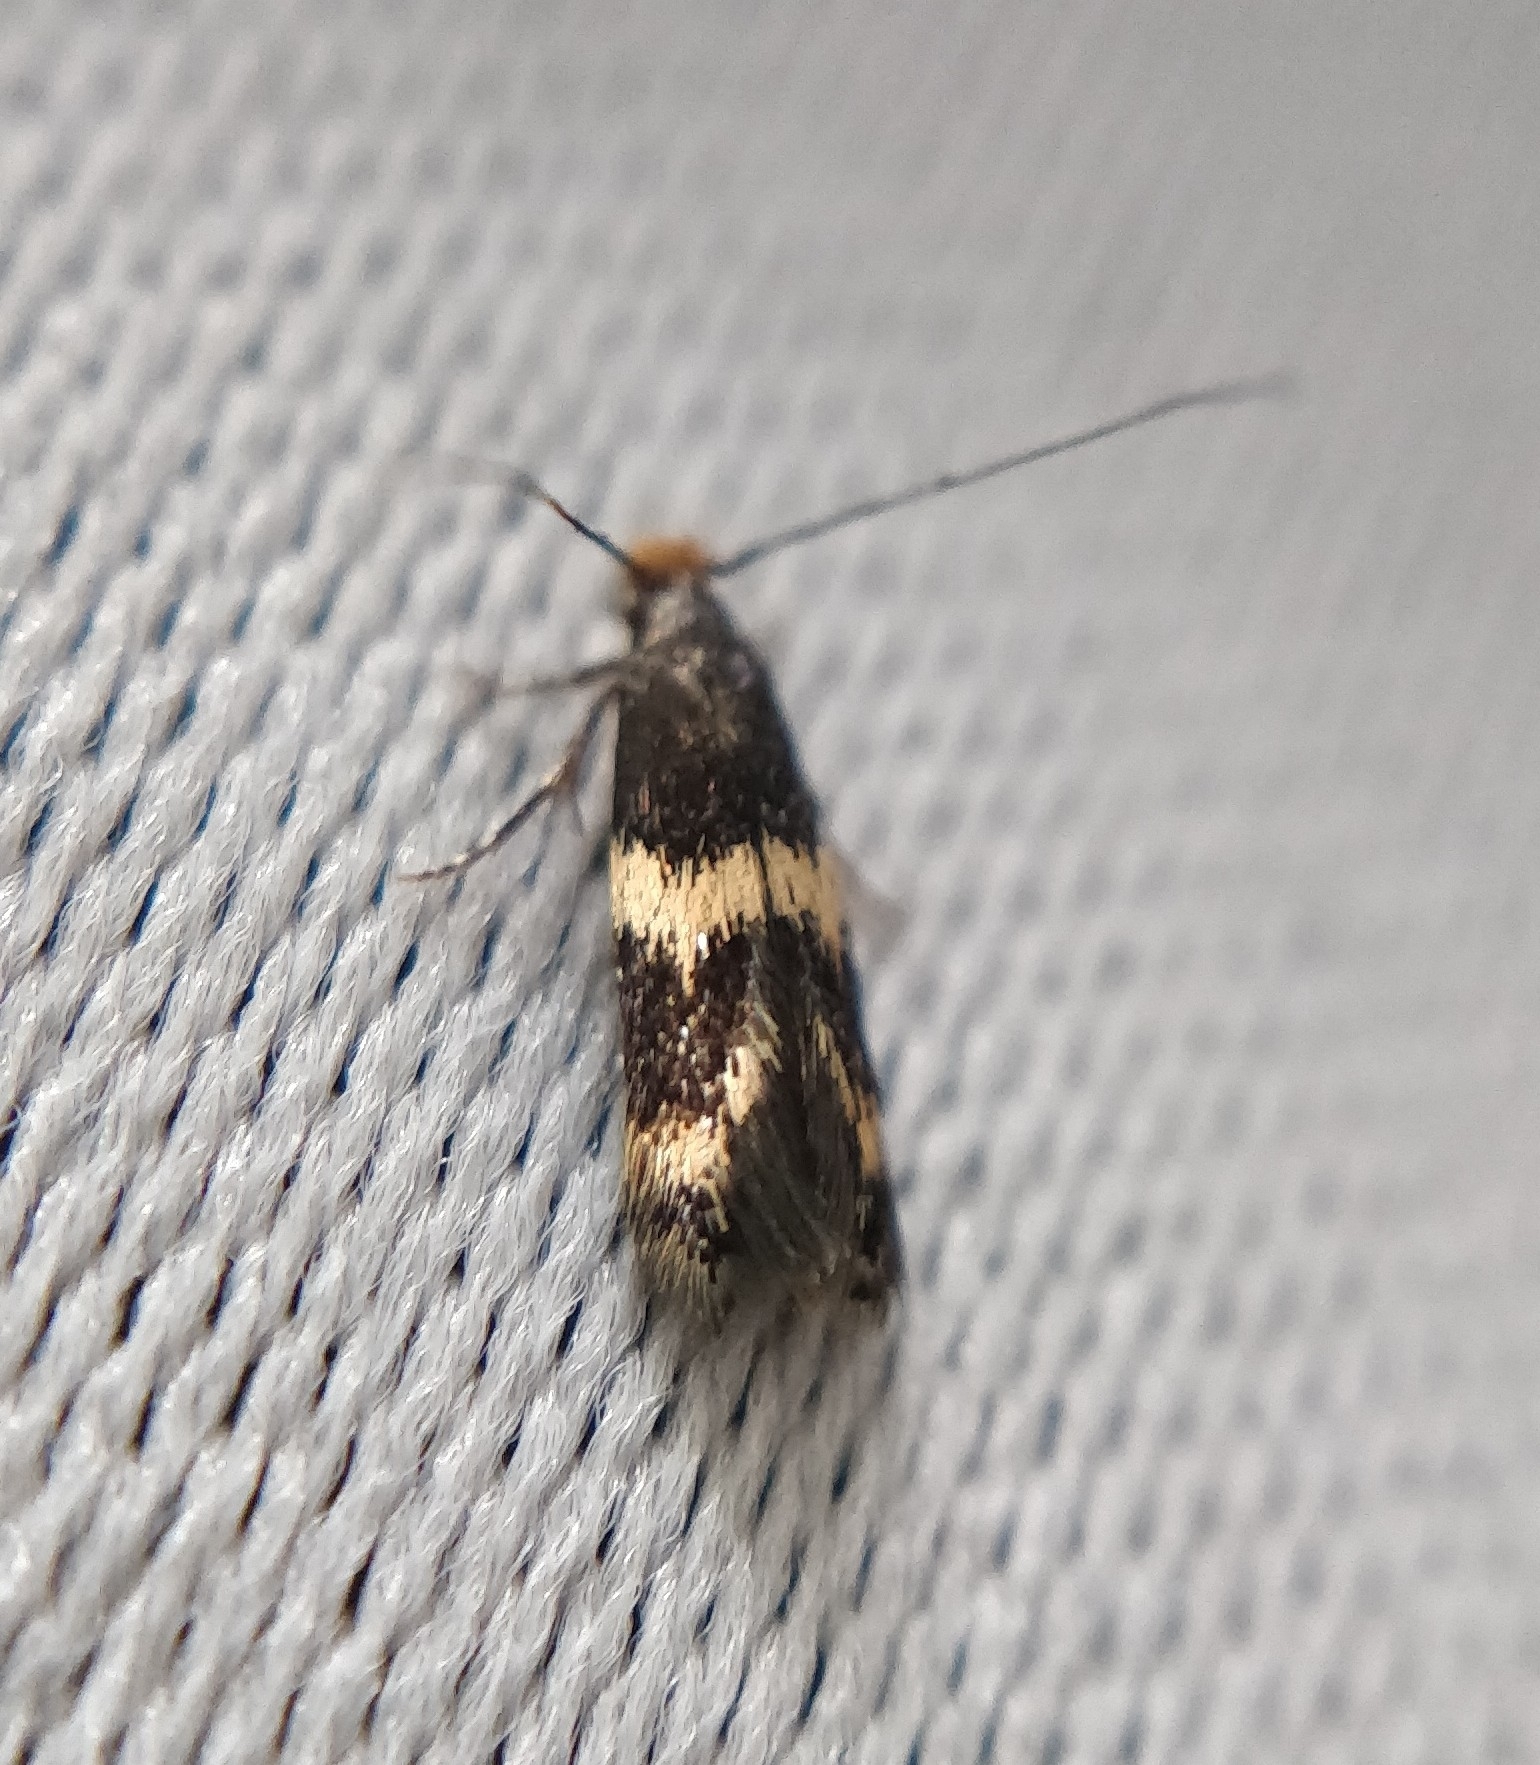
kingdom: Animalia
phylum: Arthropoda
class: Insecta
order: Lepidoptera
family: Tineidae
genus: Oinophila
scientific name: Oinophila v-flava
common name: Yellow v moth
